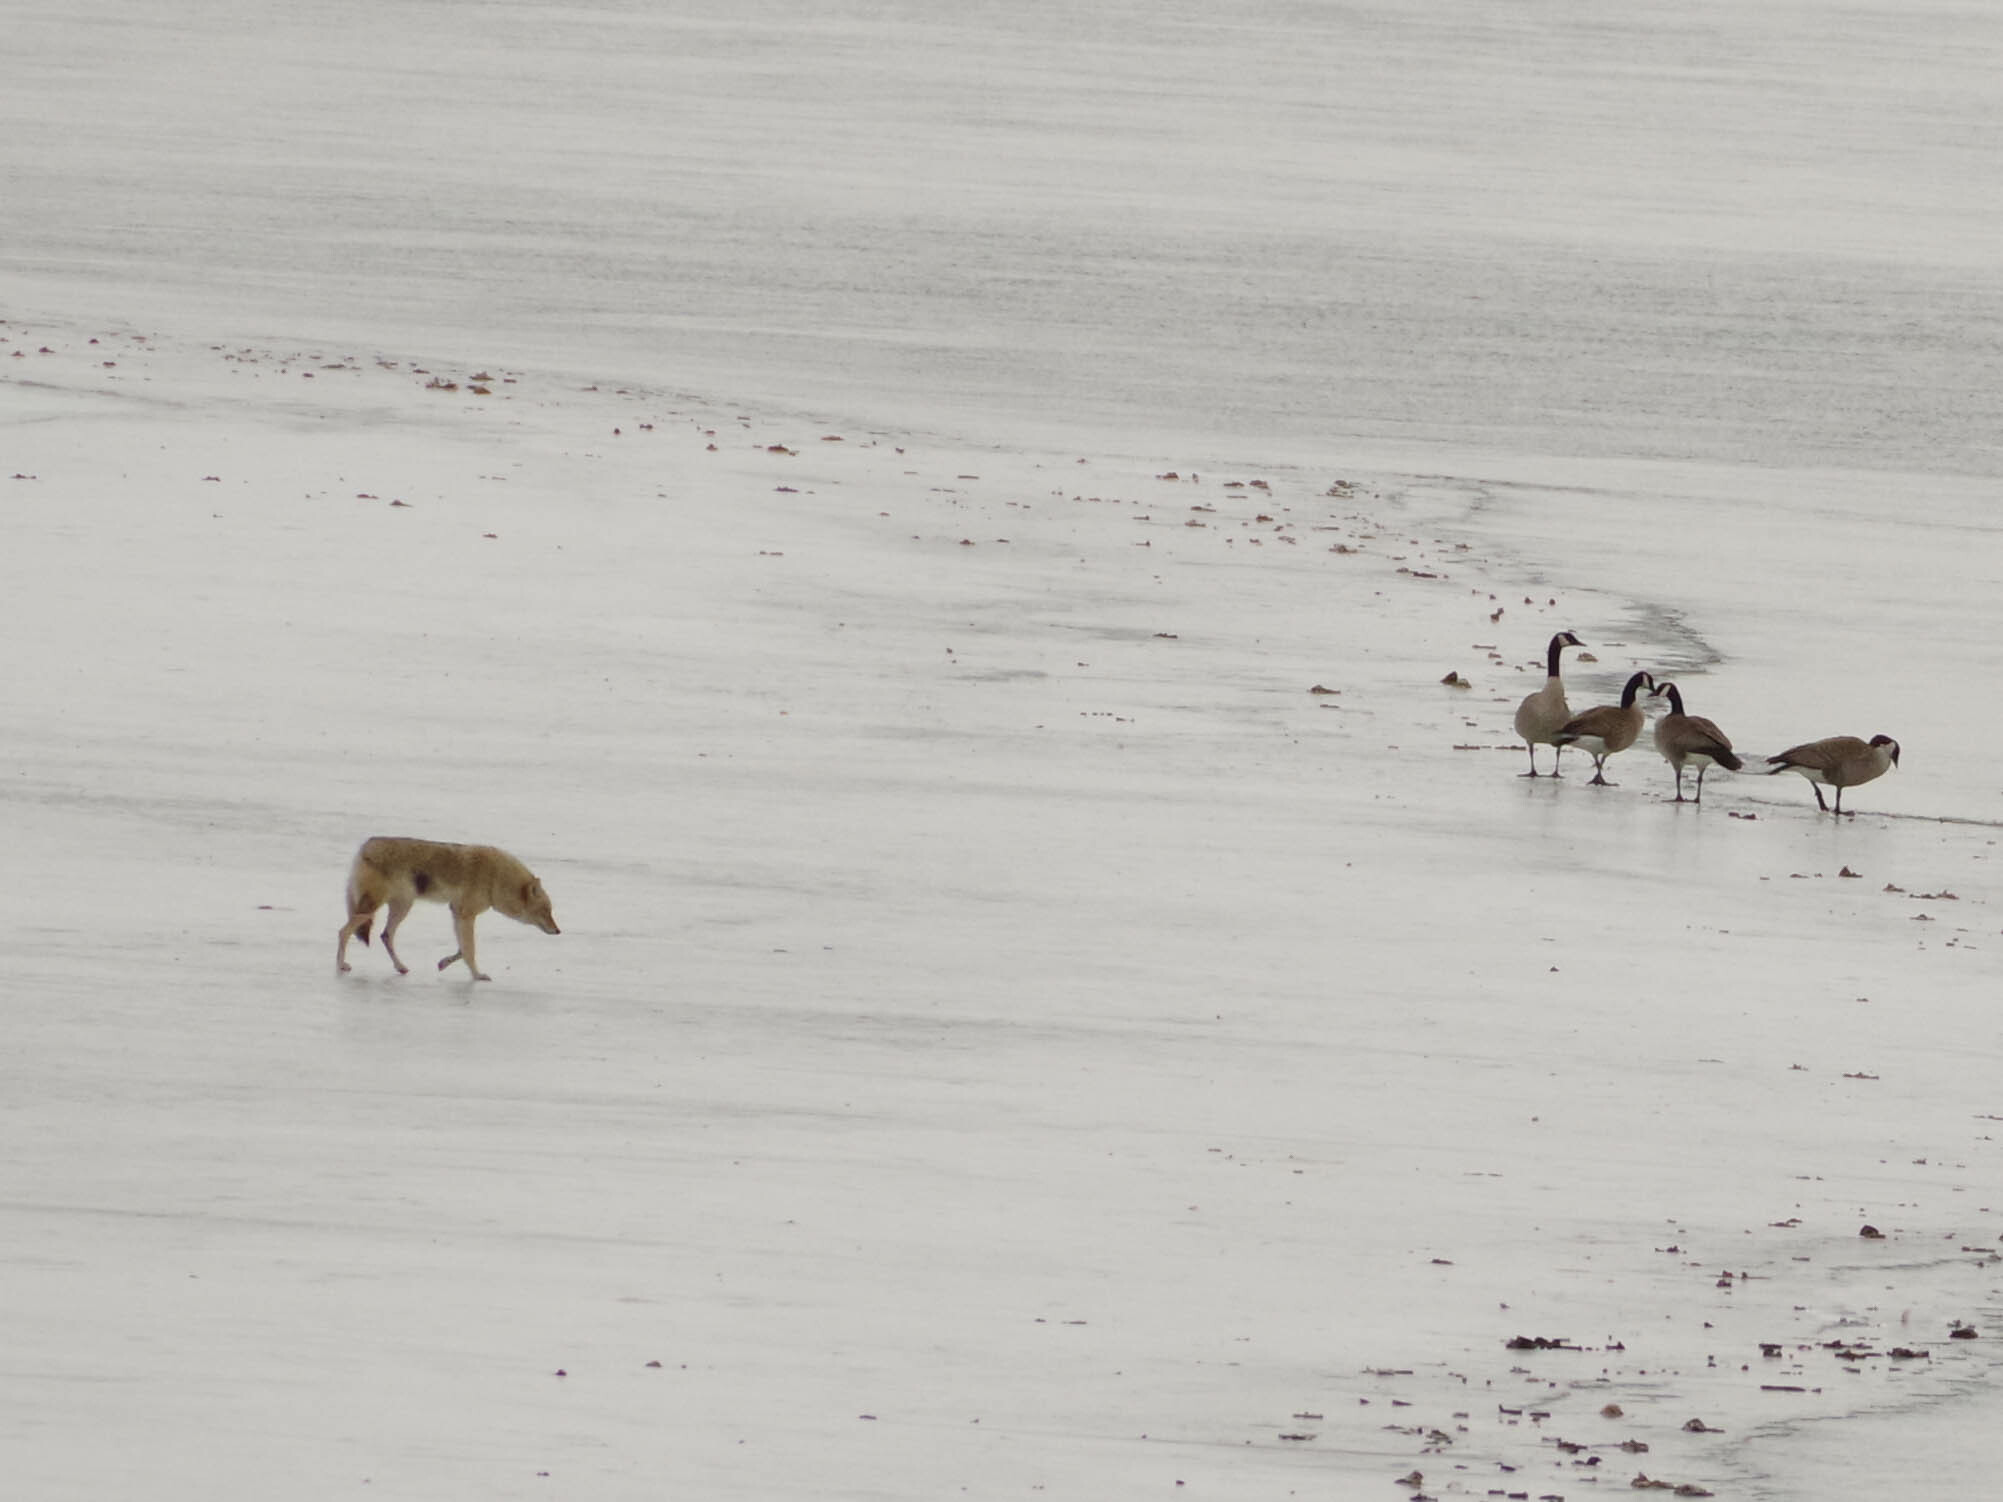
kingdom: Animalia
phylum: Chordata
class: Mammalia
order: Carnivora
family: Canidae
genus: Canis
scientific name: Canis latrans
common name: Coyote
